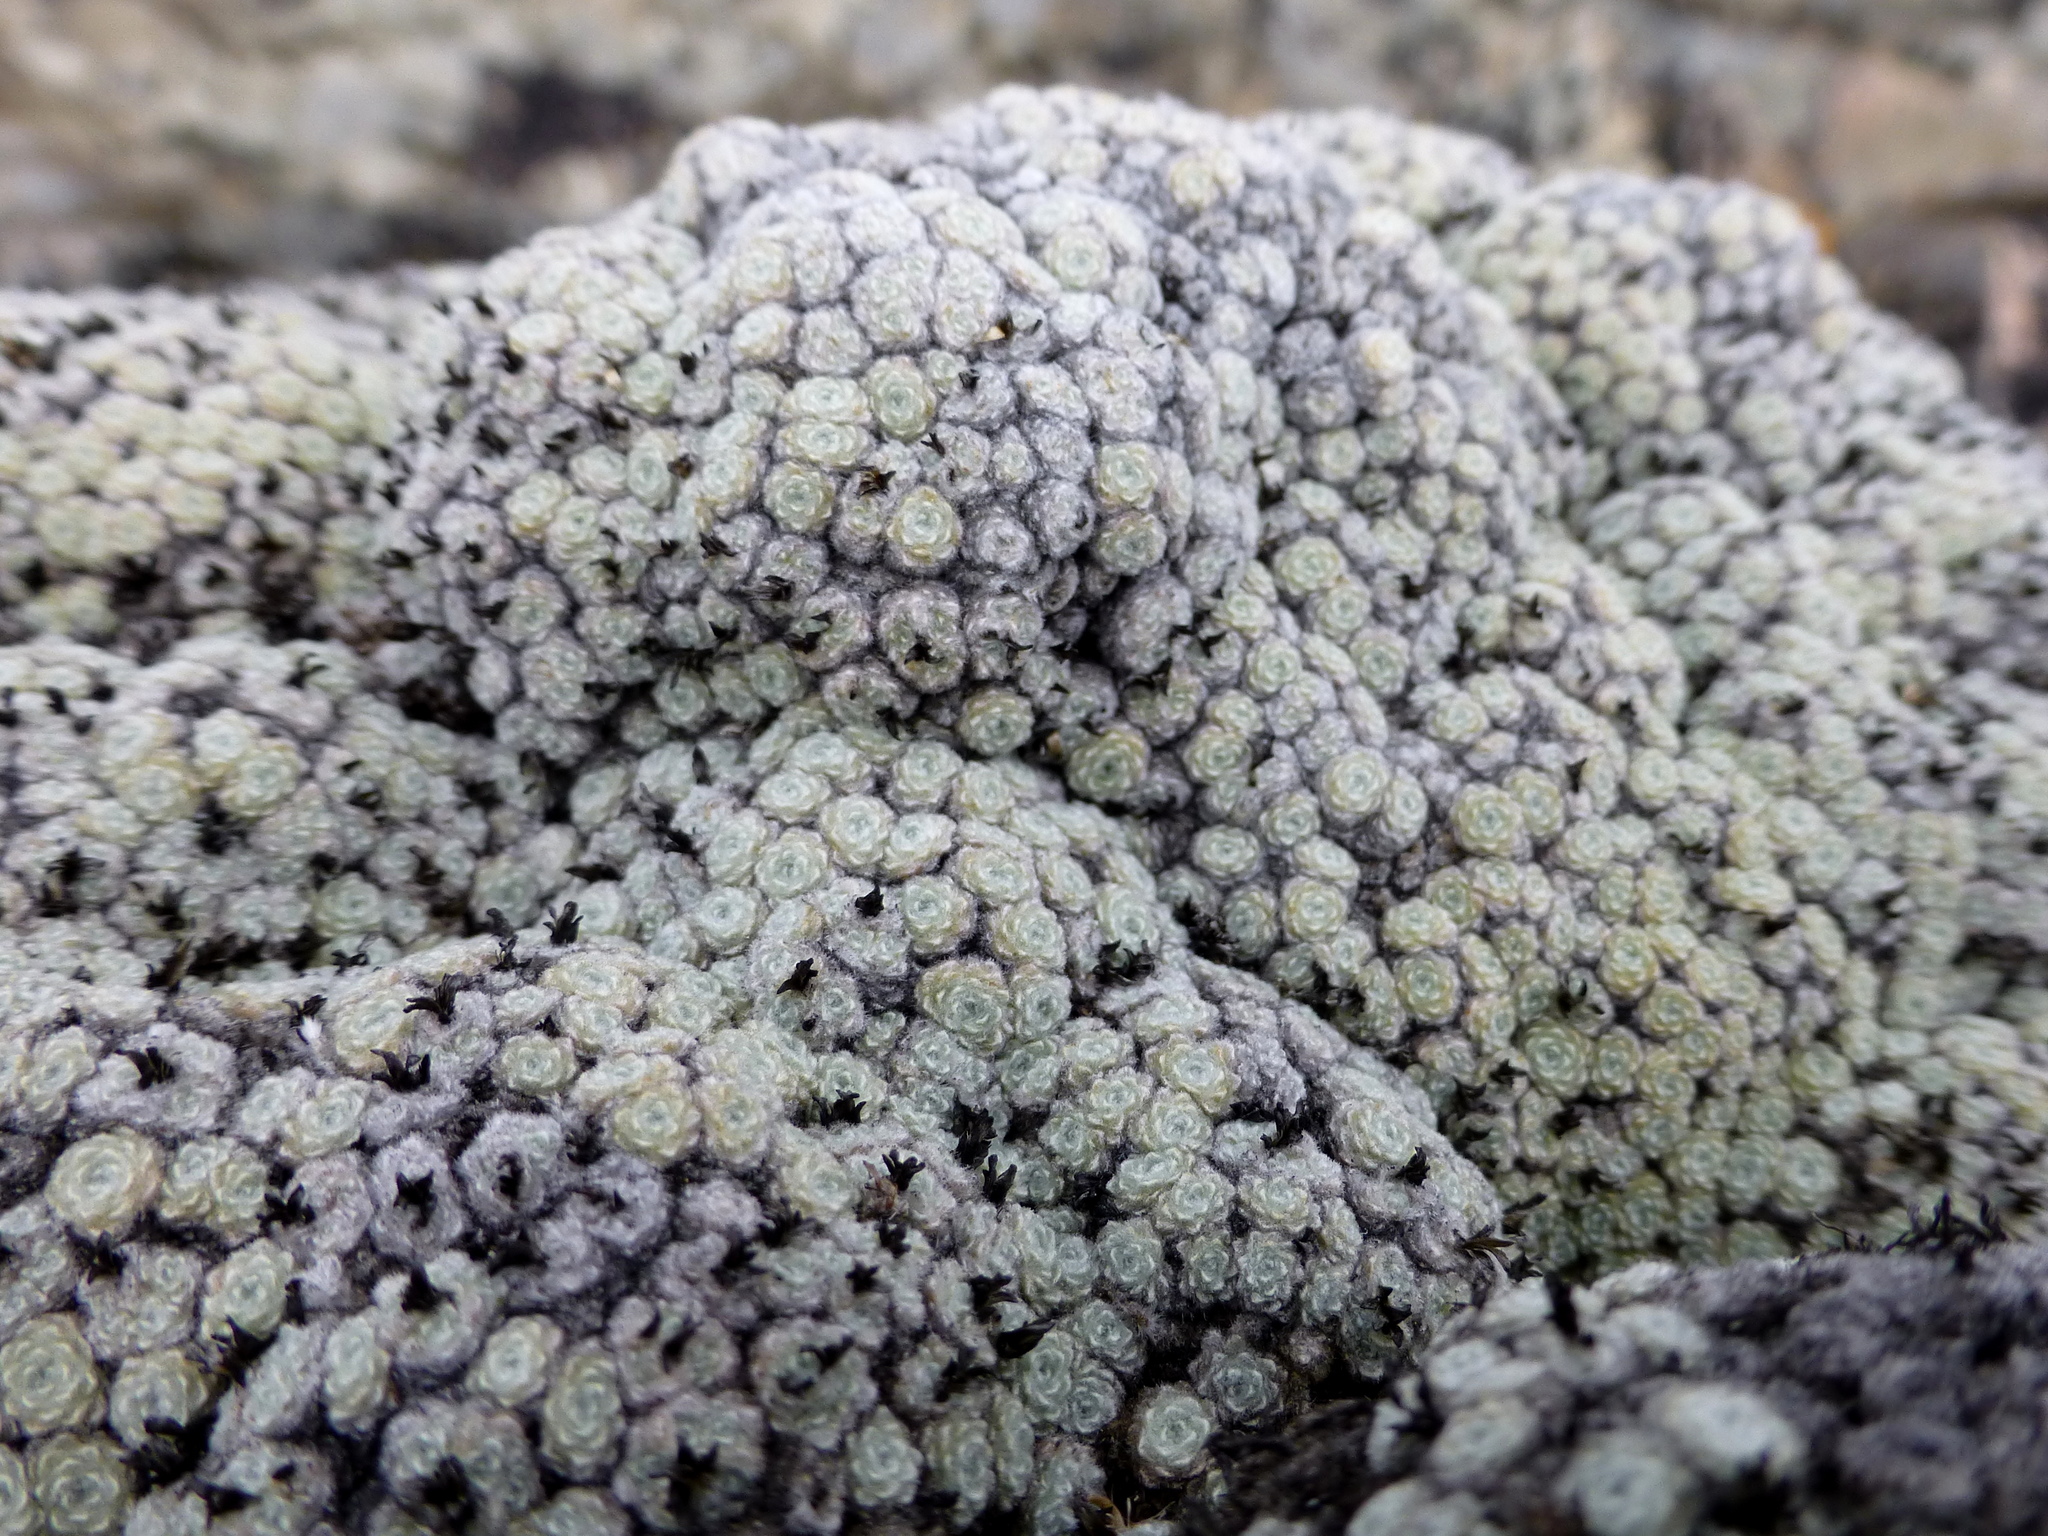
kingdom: Plantae
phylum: Tracheophyta
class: Magnoliopsida
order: Asterales
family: Asteraceae
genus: Raoulia
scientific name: Raoulia mammillaris
